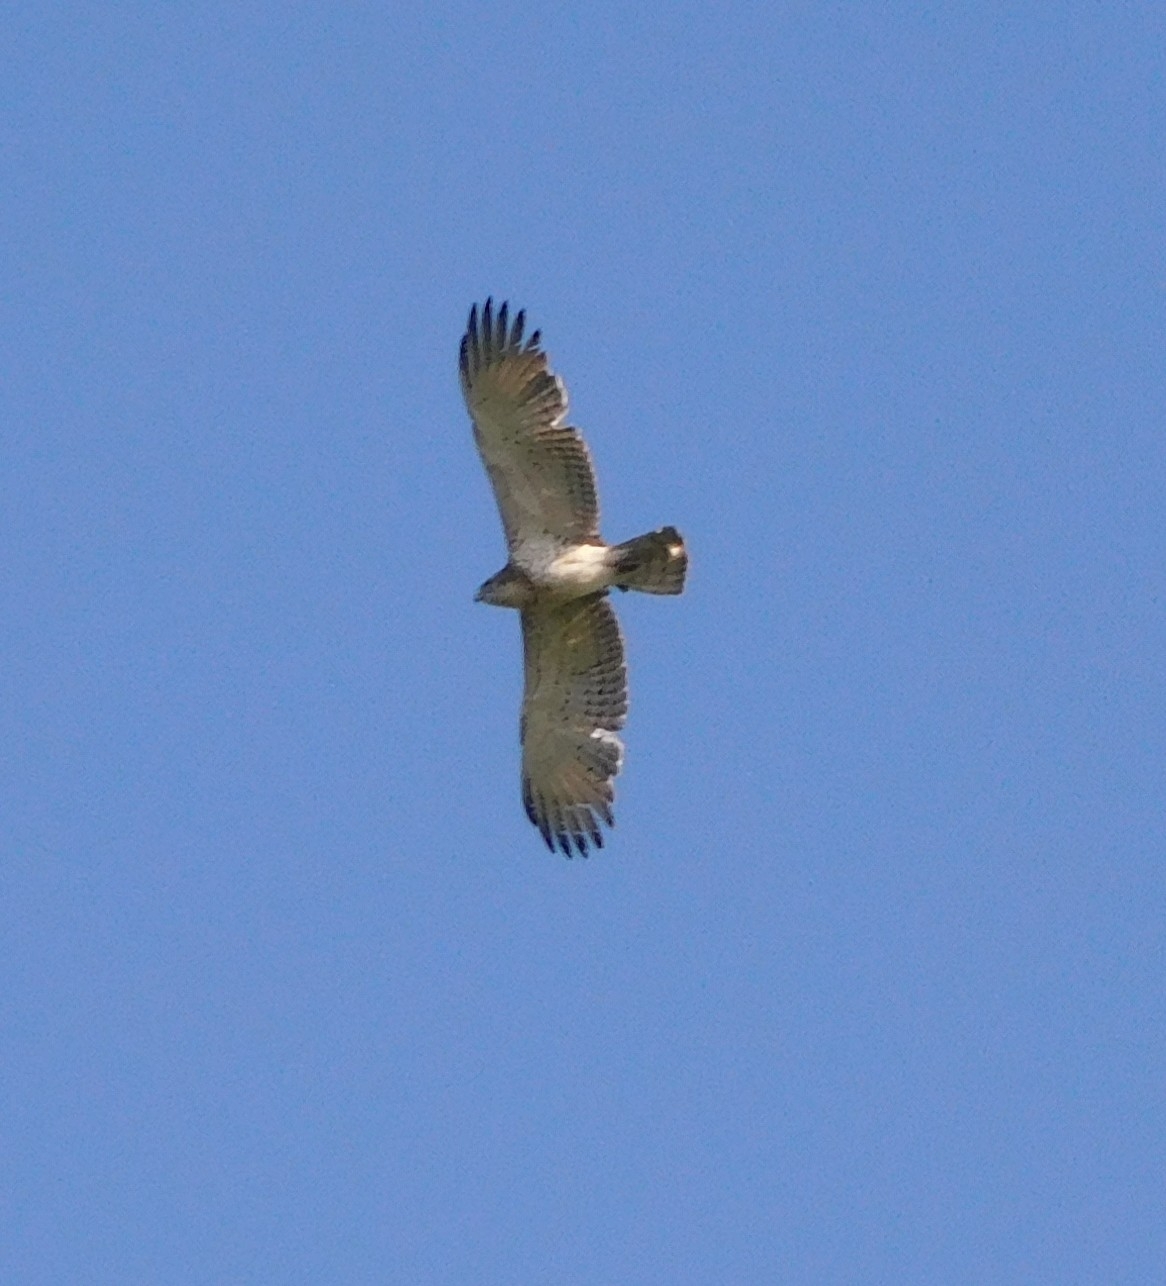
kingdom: Animalia
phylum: Chordata
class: Aves
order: Accipitriformes
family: Accipitridae
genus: Circaetus
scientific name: Circaetus gallicus
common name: Short-toed snake eagle
